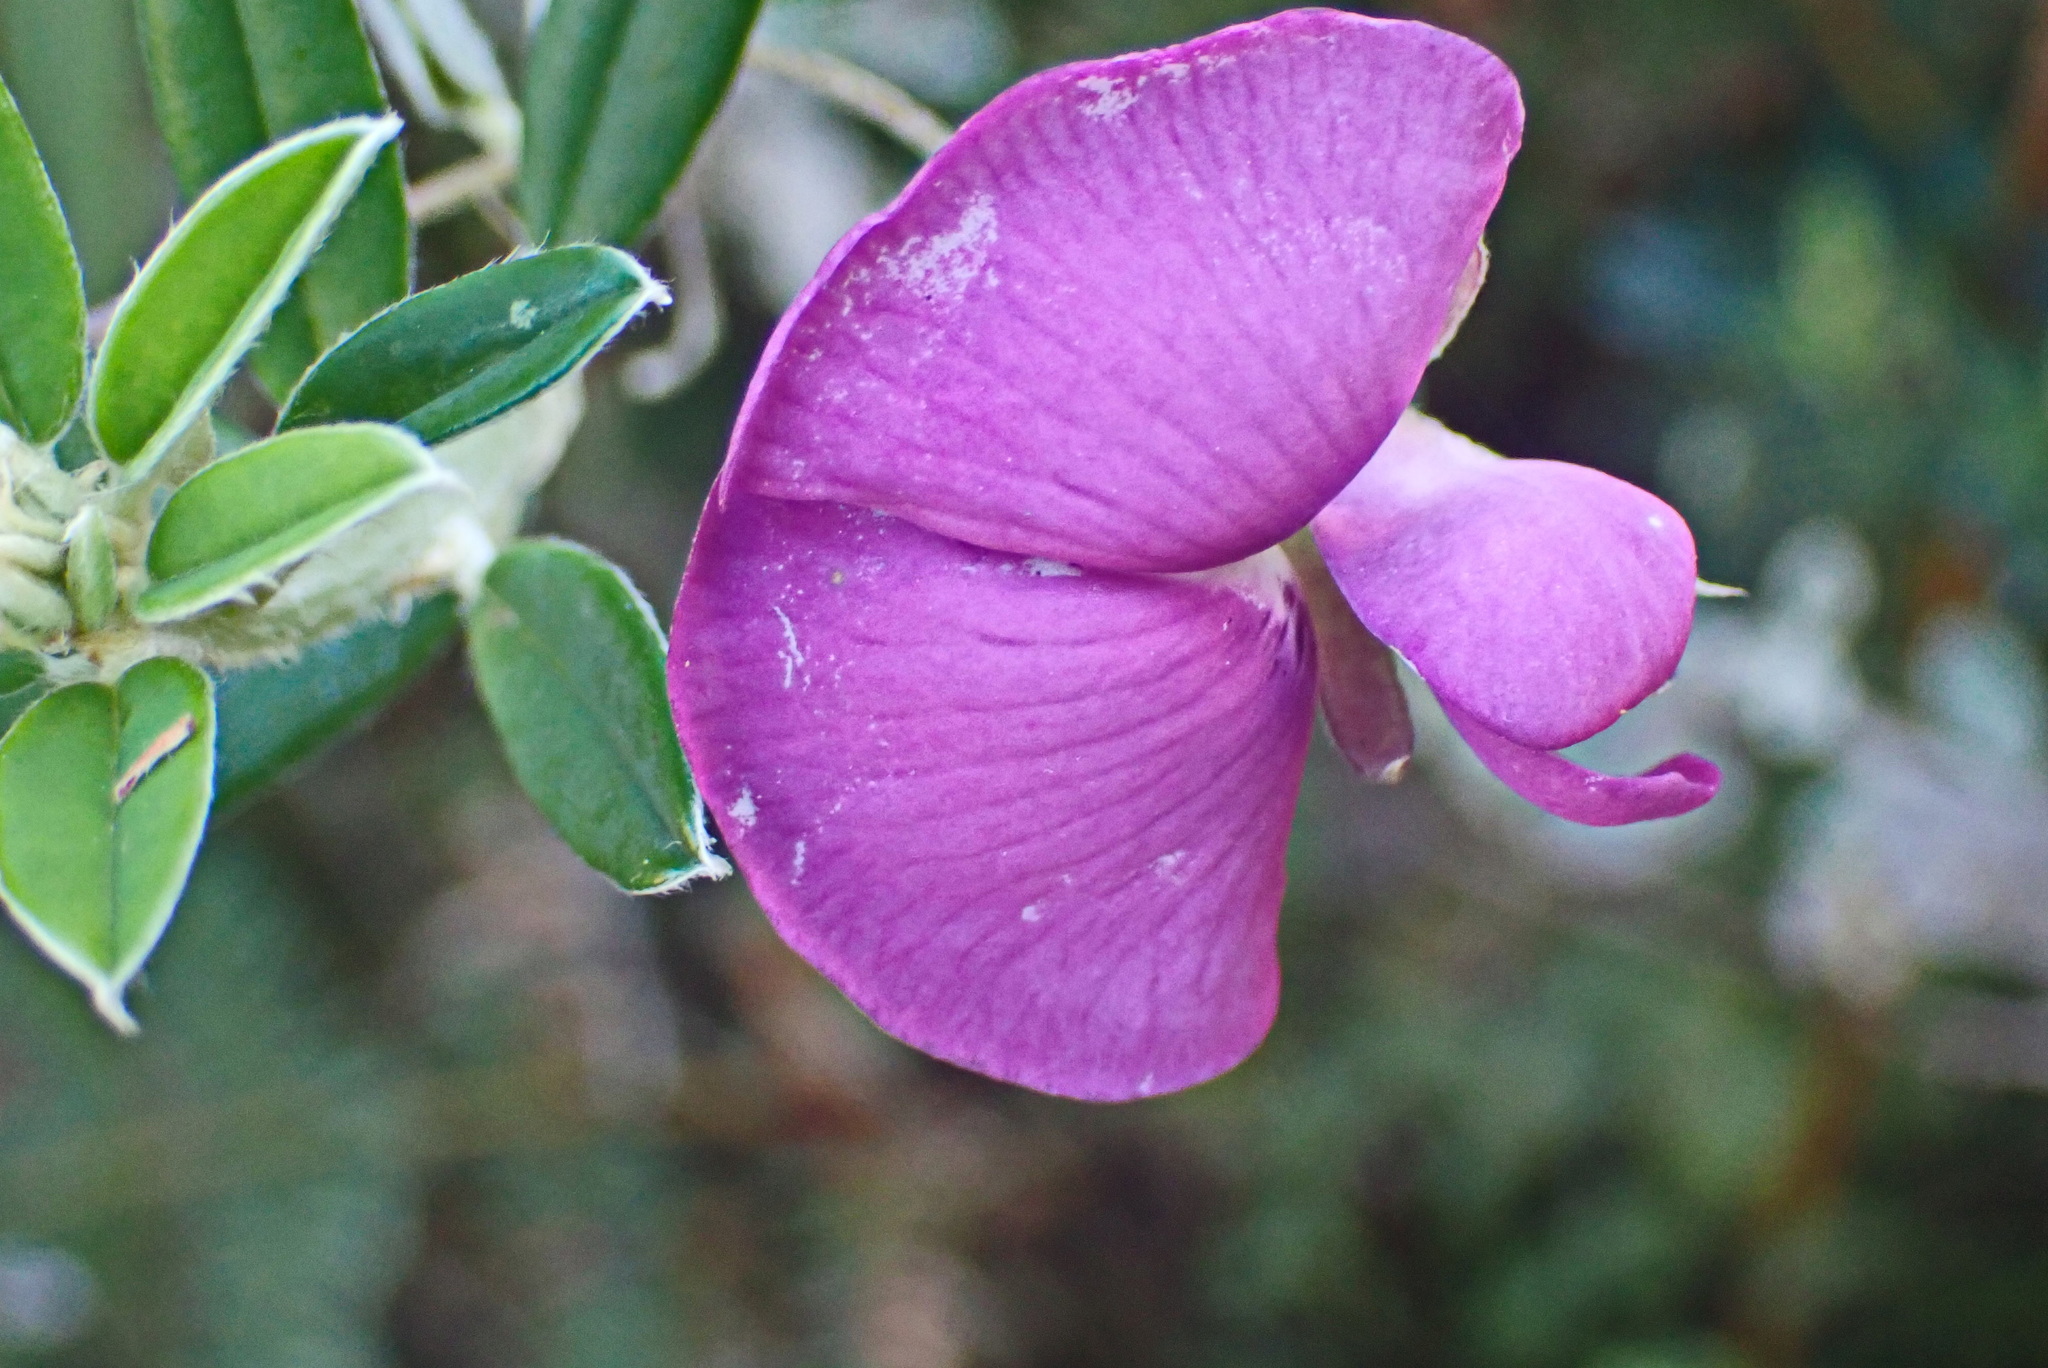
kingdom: Plantae
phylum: Tracheophyta
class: Magnoliopsida
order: Fabales
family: Fabaceae
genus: Podalyria
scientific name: Podalyria buxifolia
